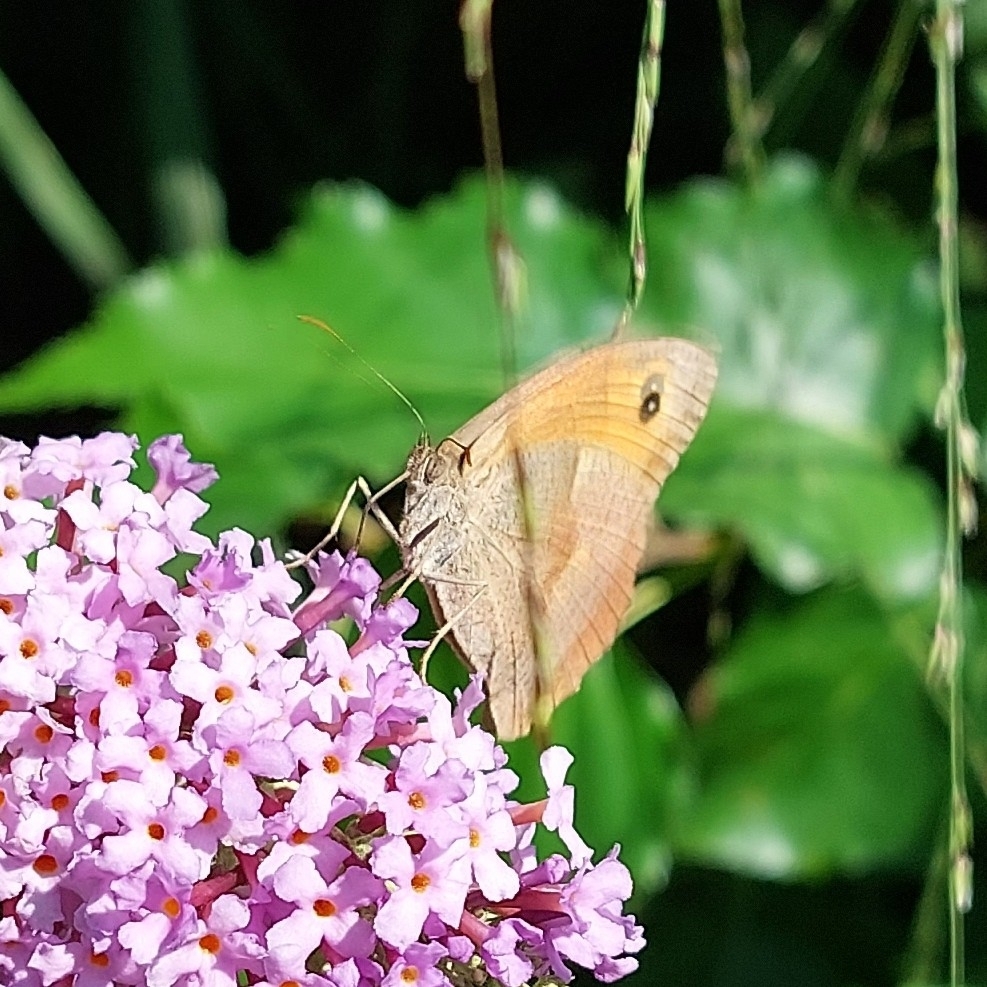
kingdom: Animalia
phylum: Arthropoda
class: Insecta
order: Lepidoptera
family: Nymphalidae
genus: Maniola
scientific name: Maniola jurtina
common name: Meadow brown
